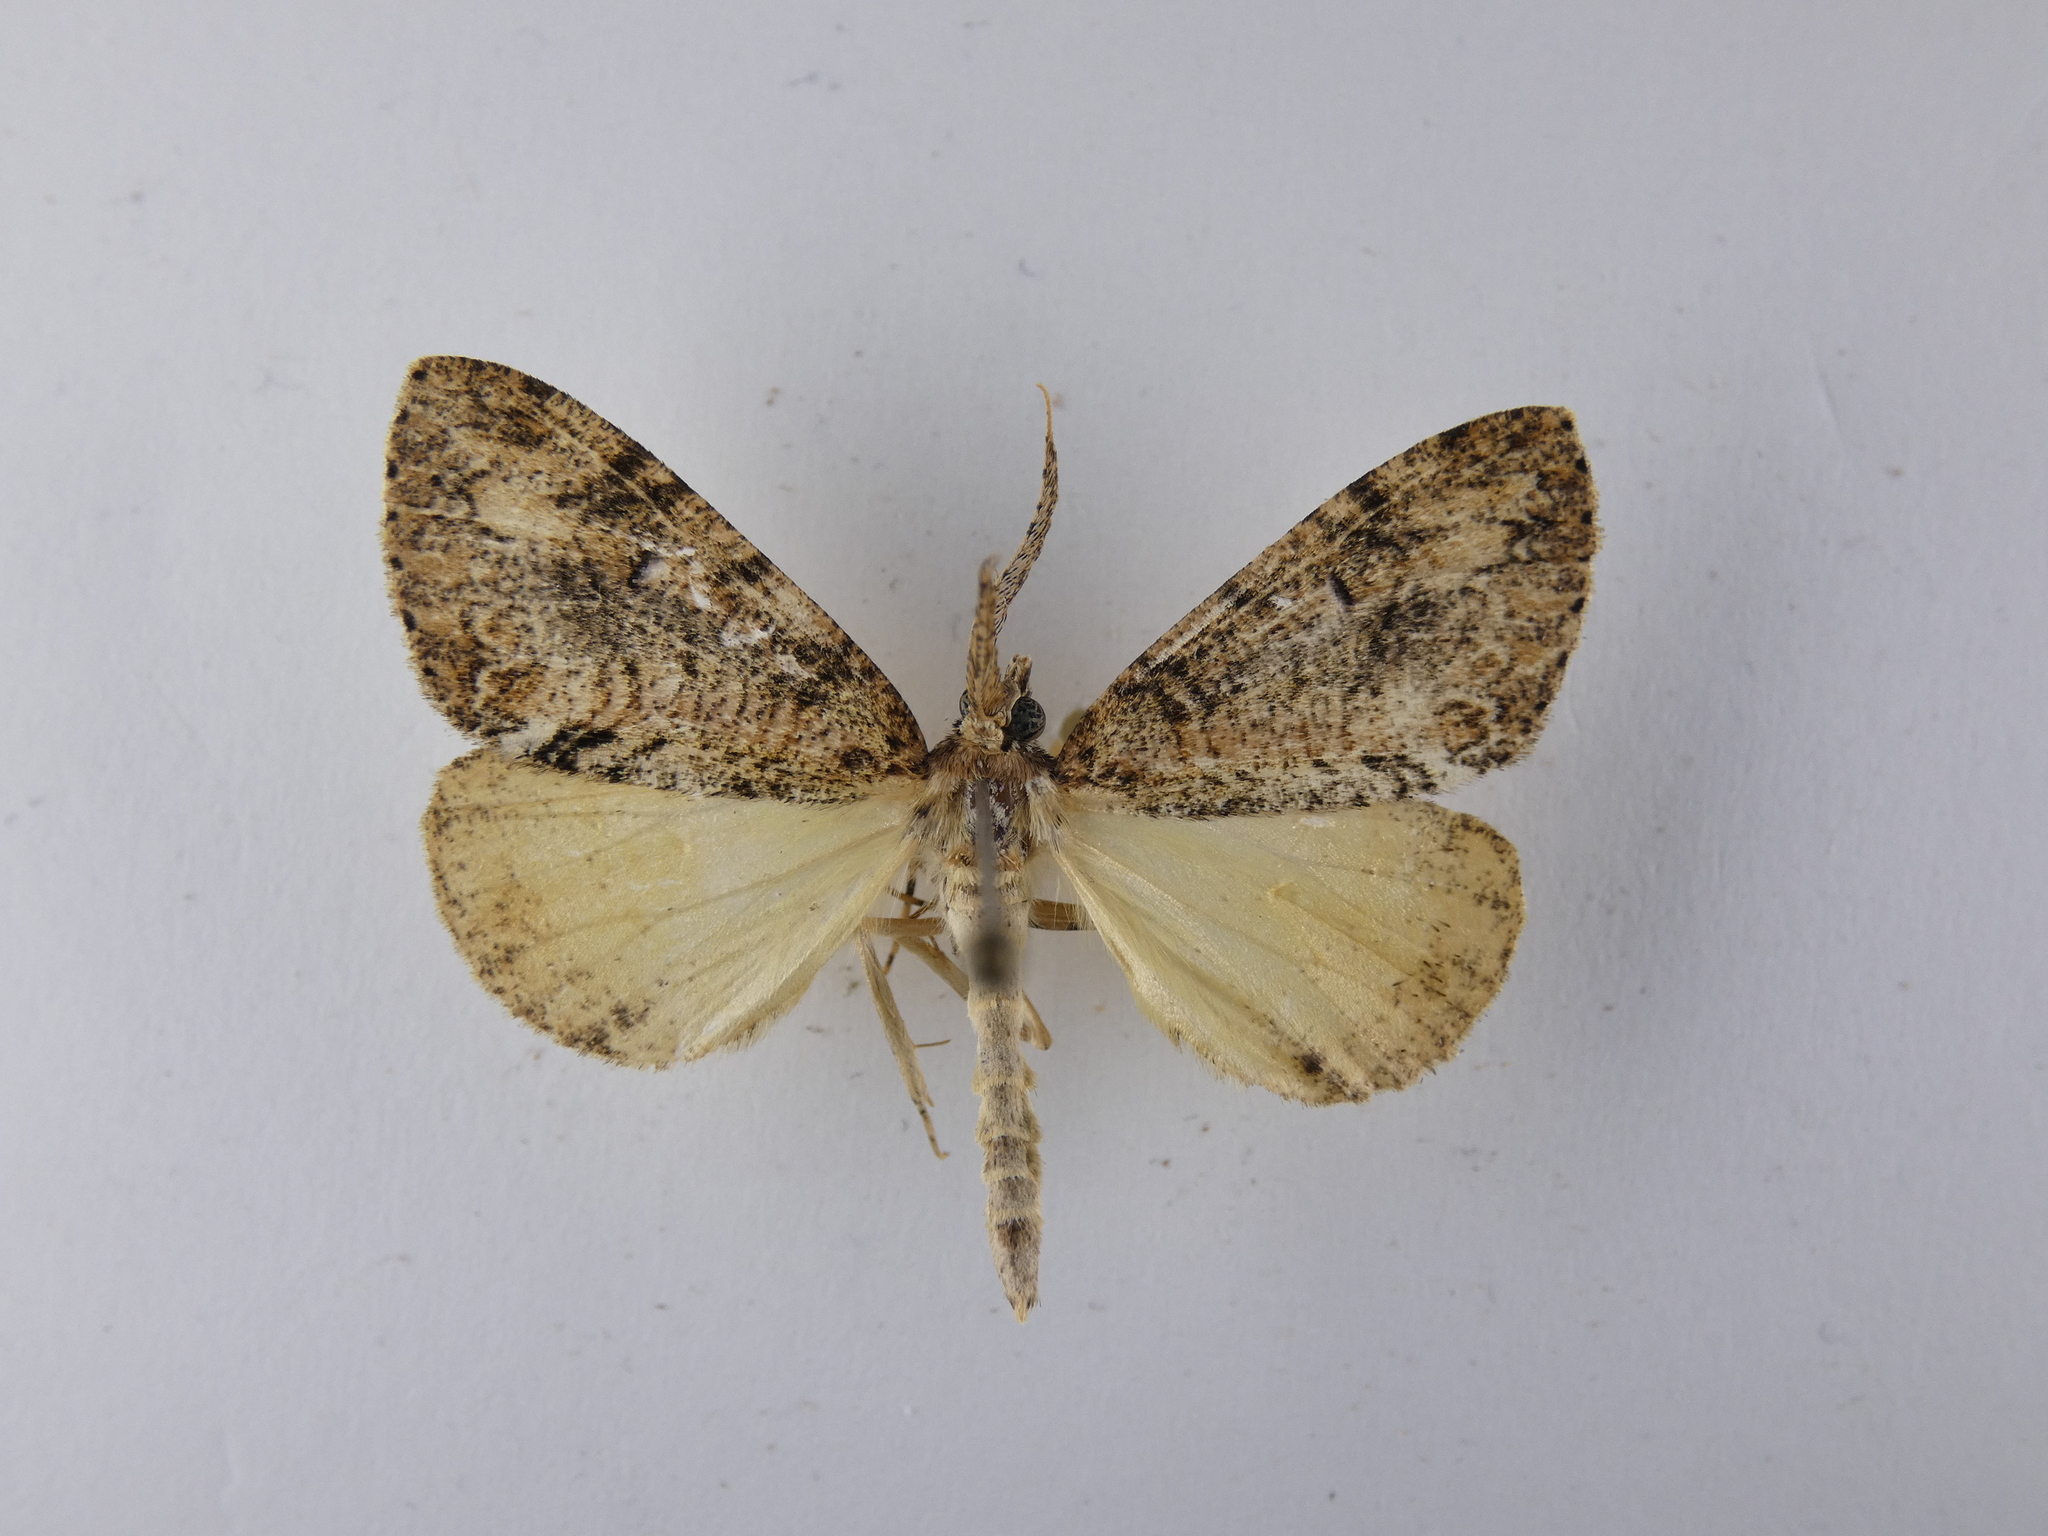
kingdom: Animalia
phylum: Arthropoda
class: Insecta
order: Lepidoptera
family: Geometridae
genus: Pseudocoremia
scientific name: Pseudocoremia suavis
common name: Common forest looper
